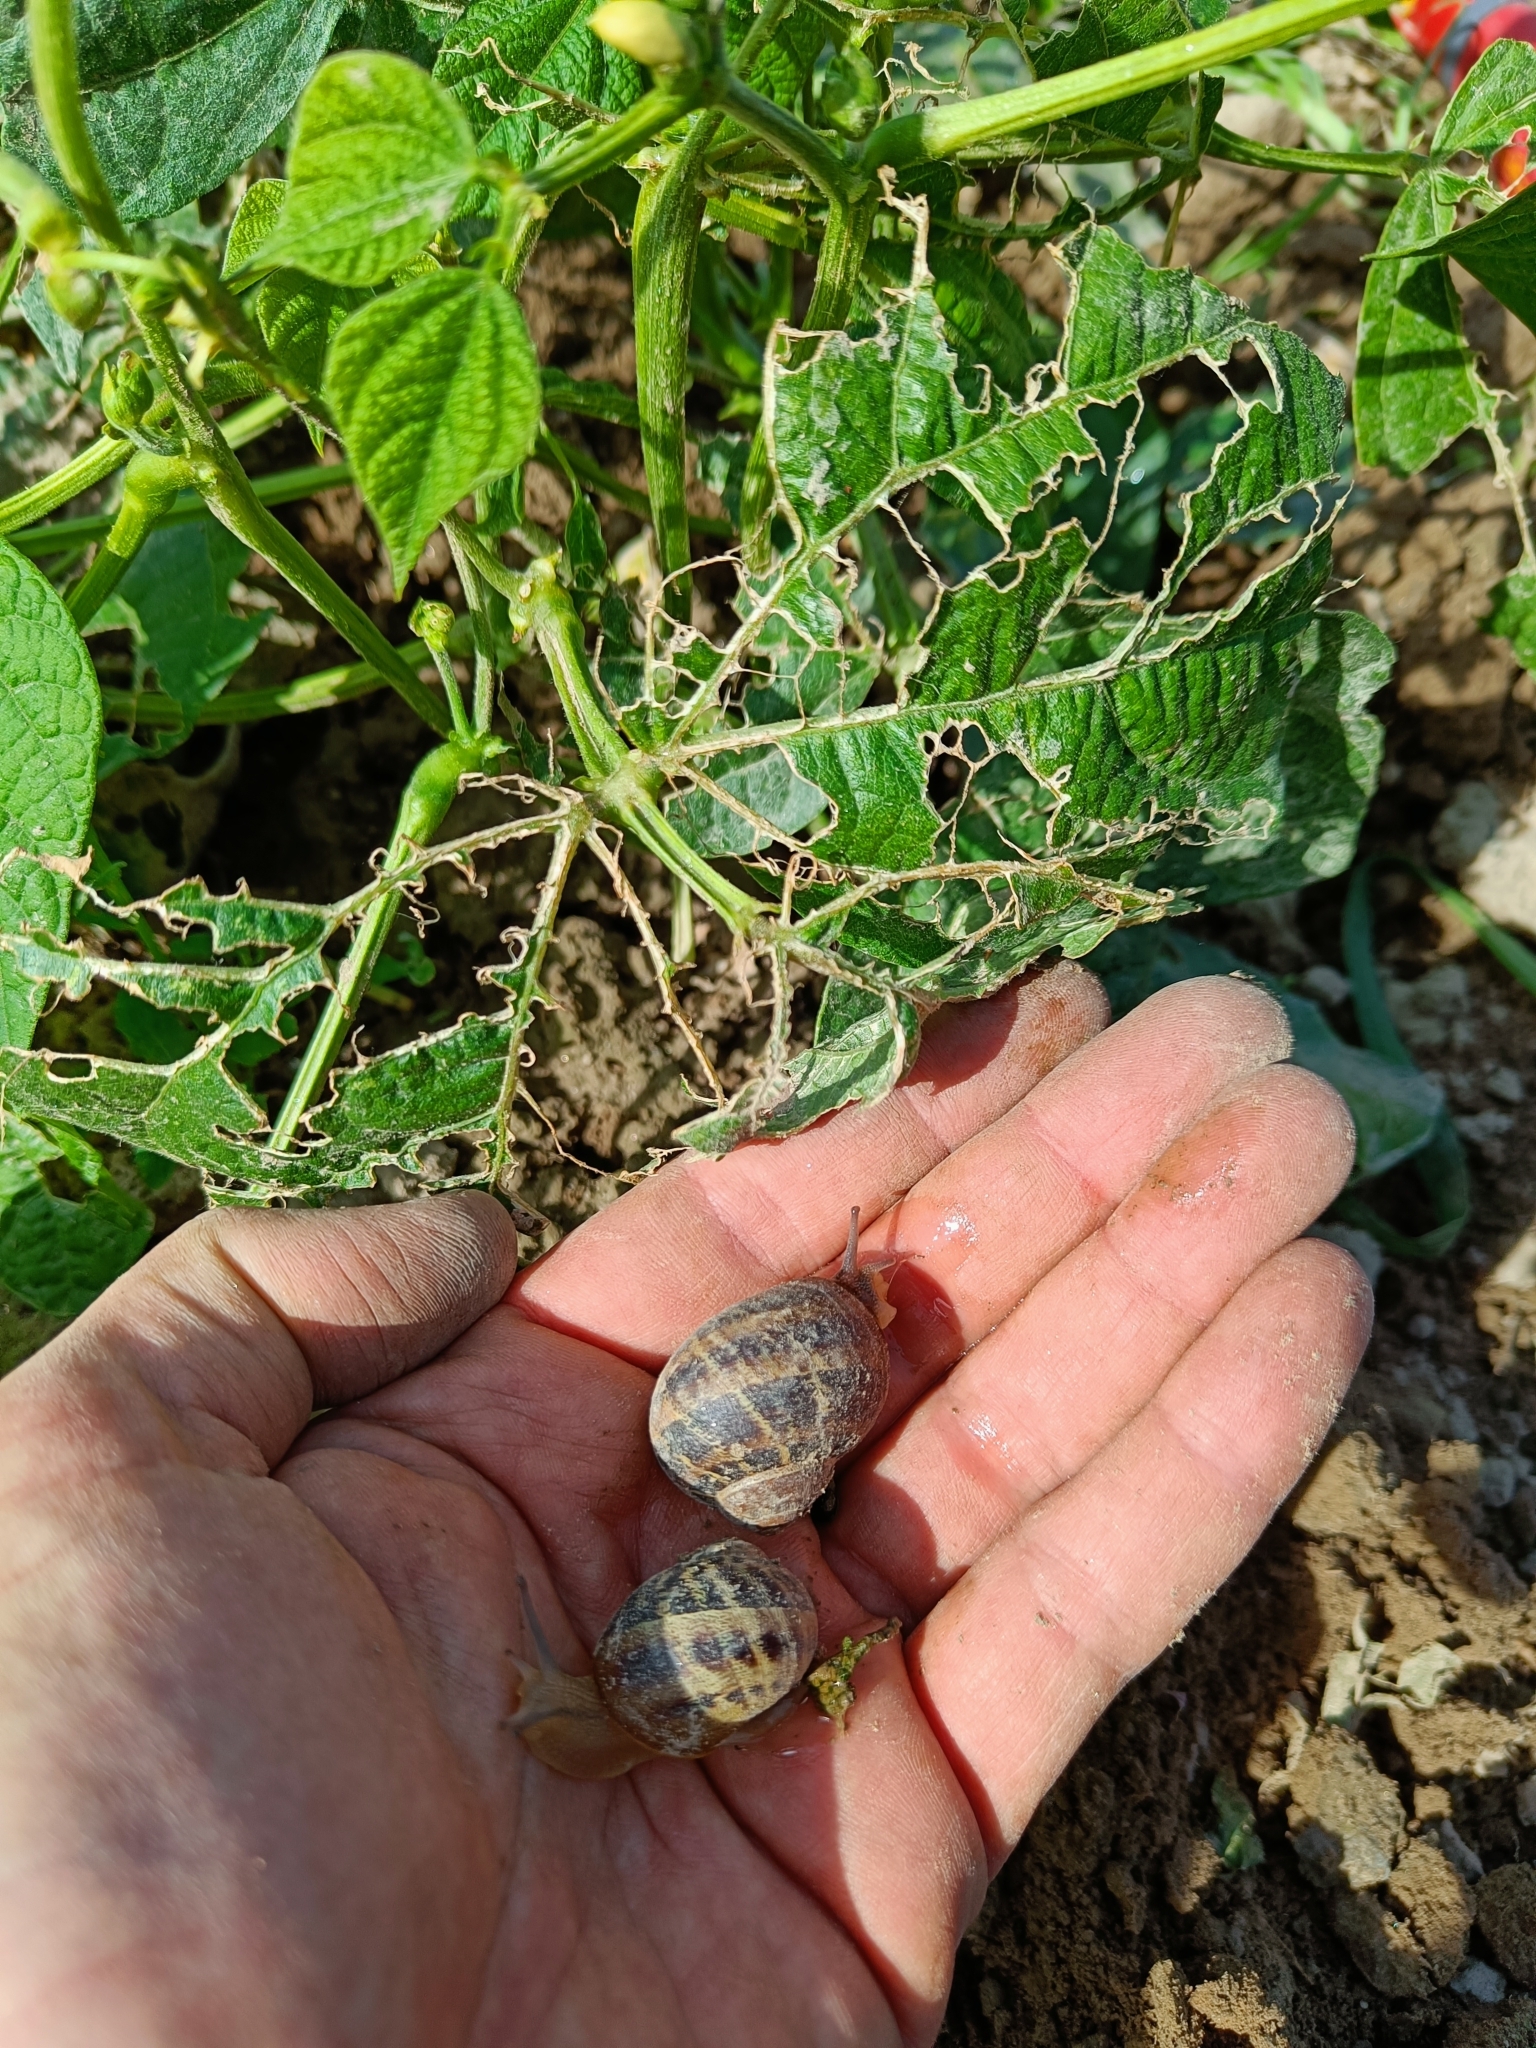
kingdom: Animalia
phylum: Mollusca
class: Gastropoda
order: Stylommatophora
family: Helicidae
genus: Cornu
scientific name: Cornu aspersum
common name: Brown garden snail
